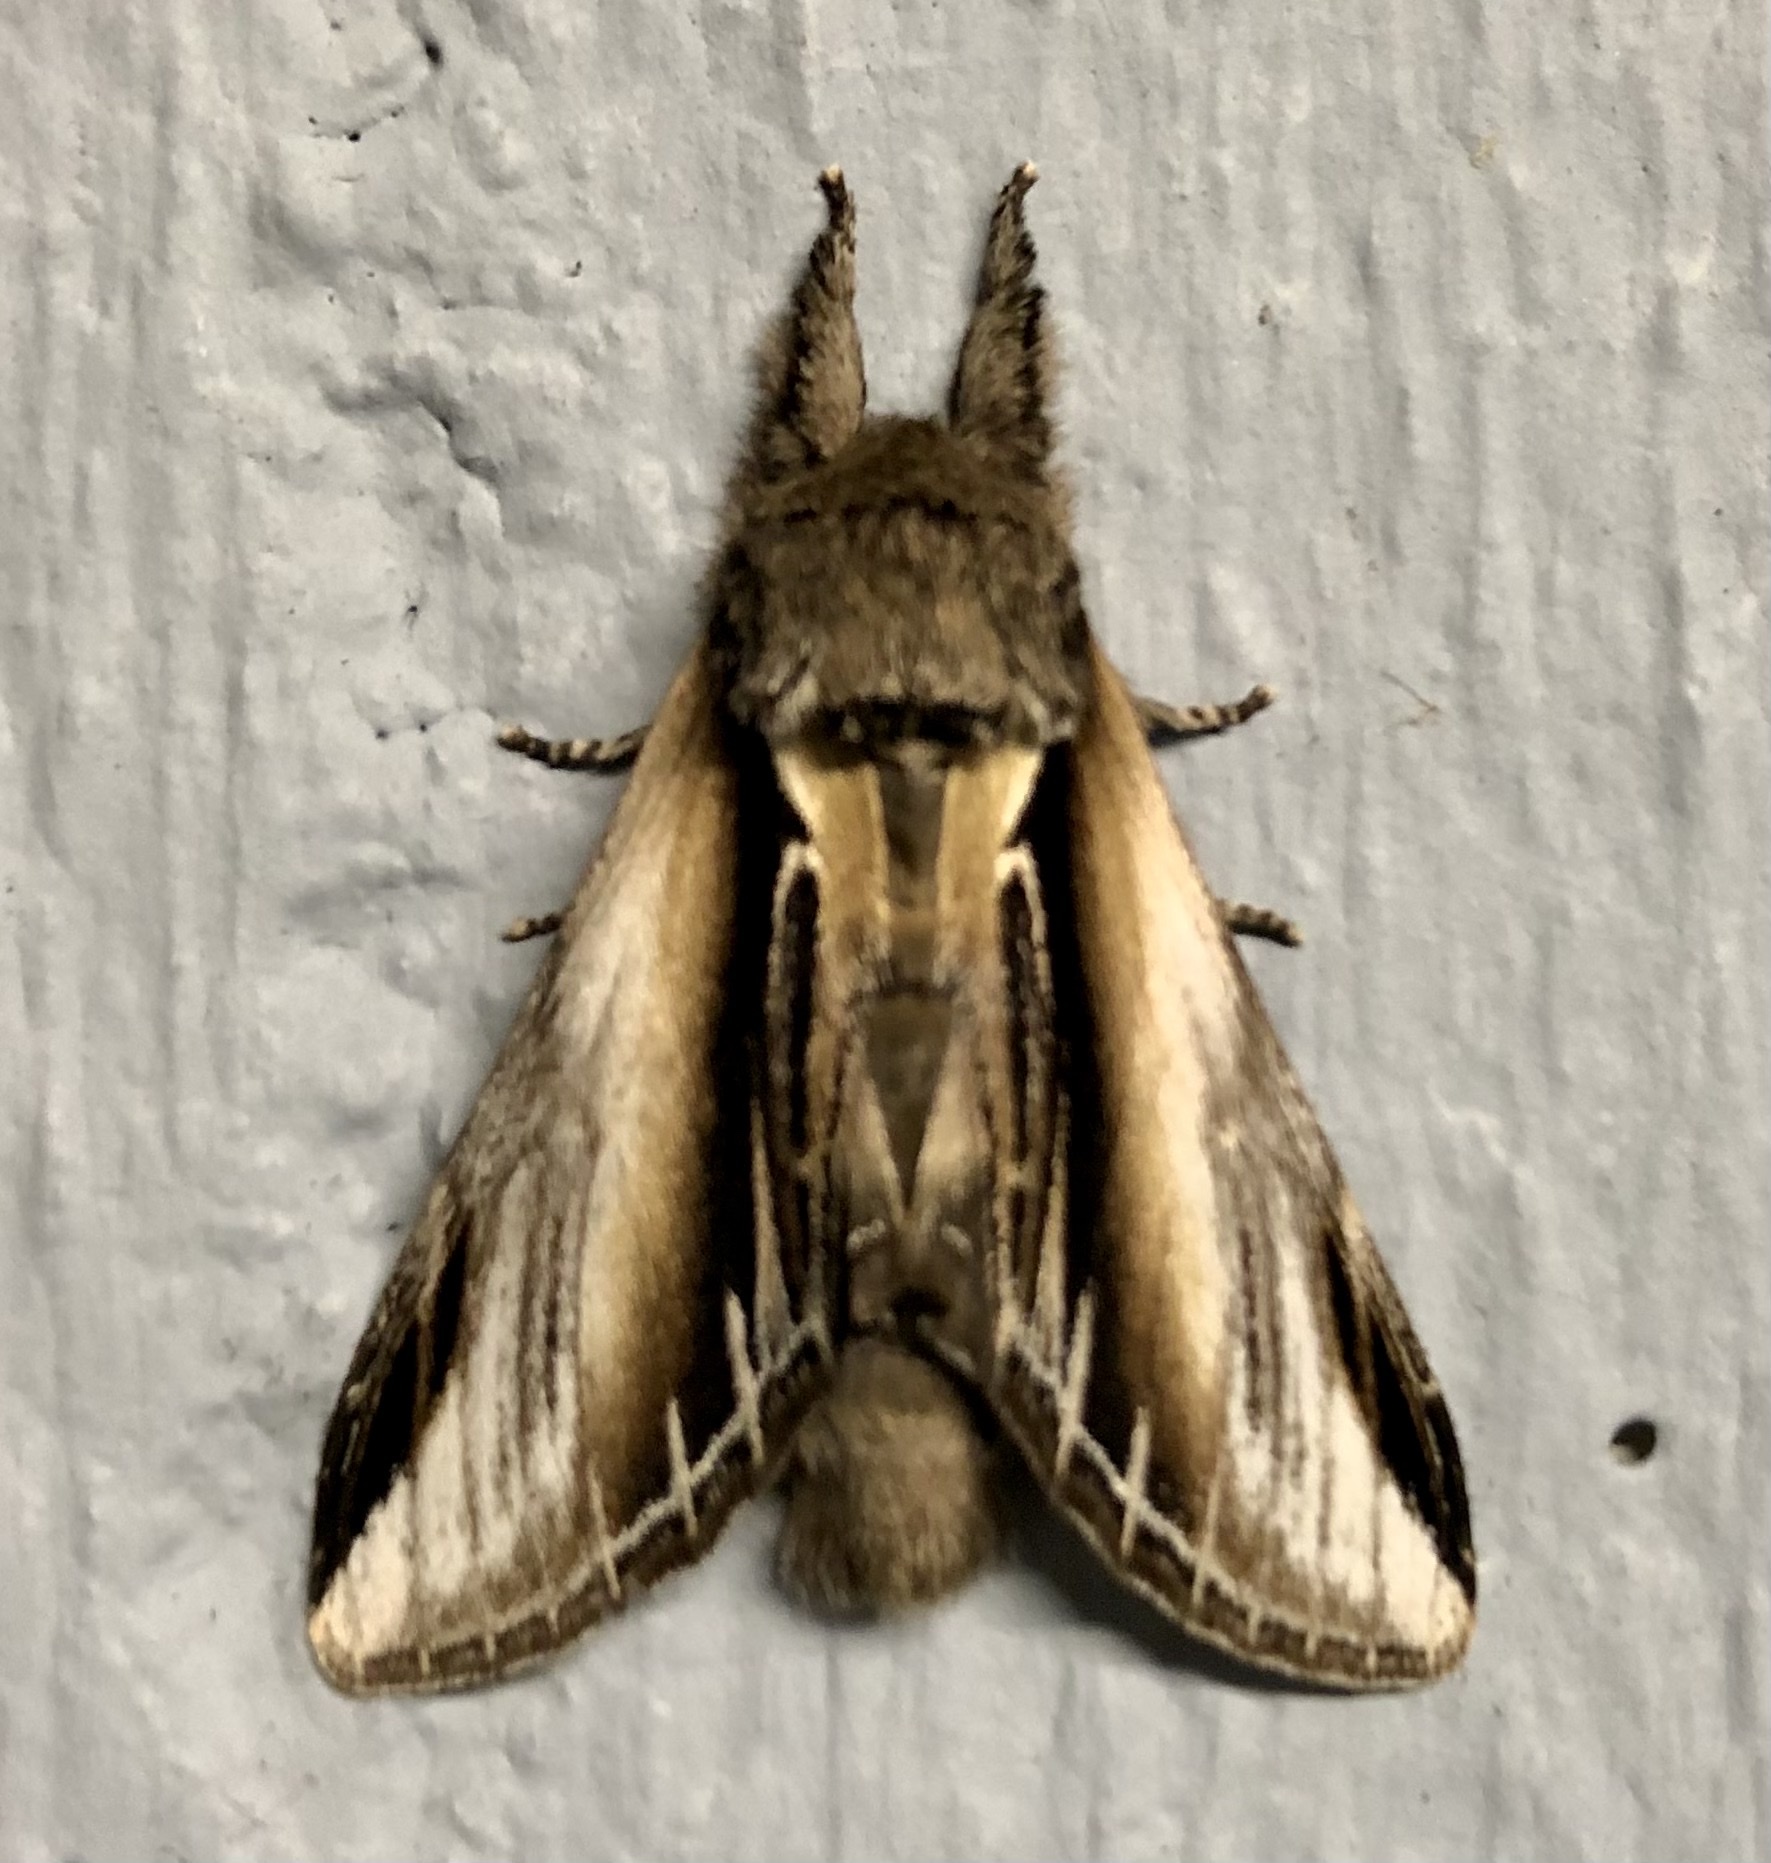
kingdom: Animalia
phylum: Arthropoda
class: Insecta
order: Lepidoptera
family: Notodontidae
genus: Pheosia
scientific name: Pheosia tremula
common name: Swallow prominent
